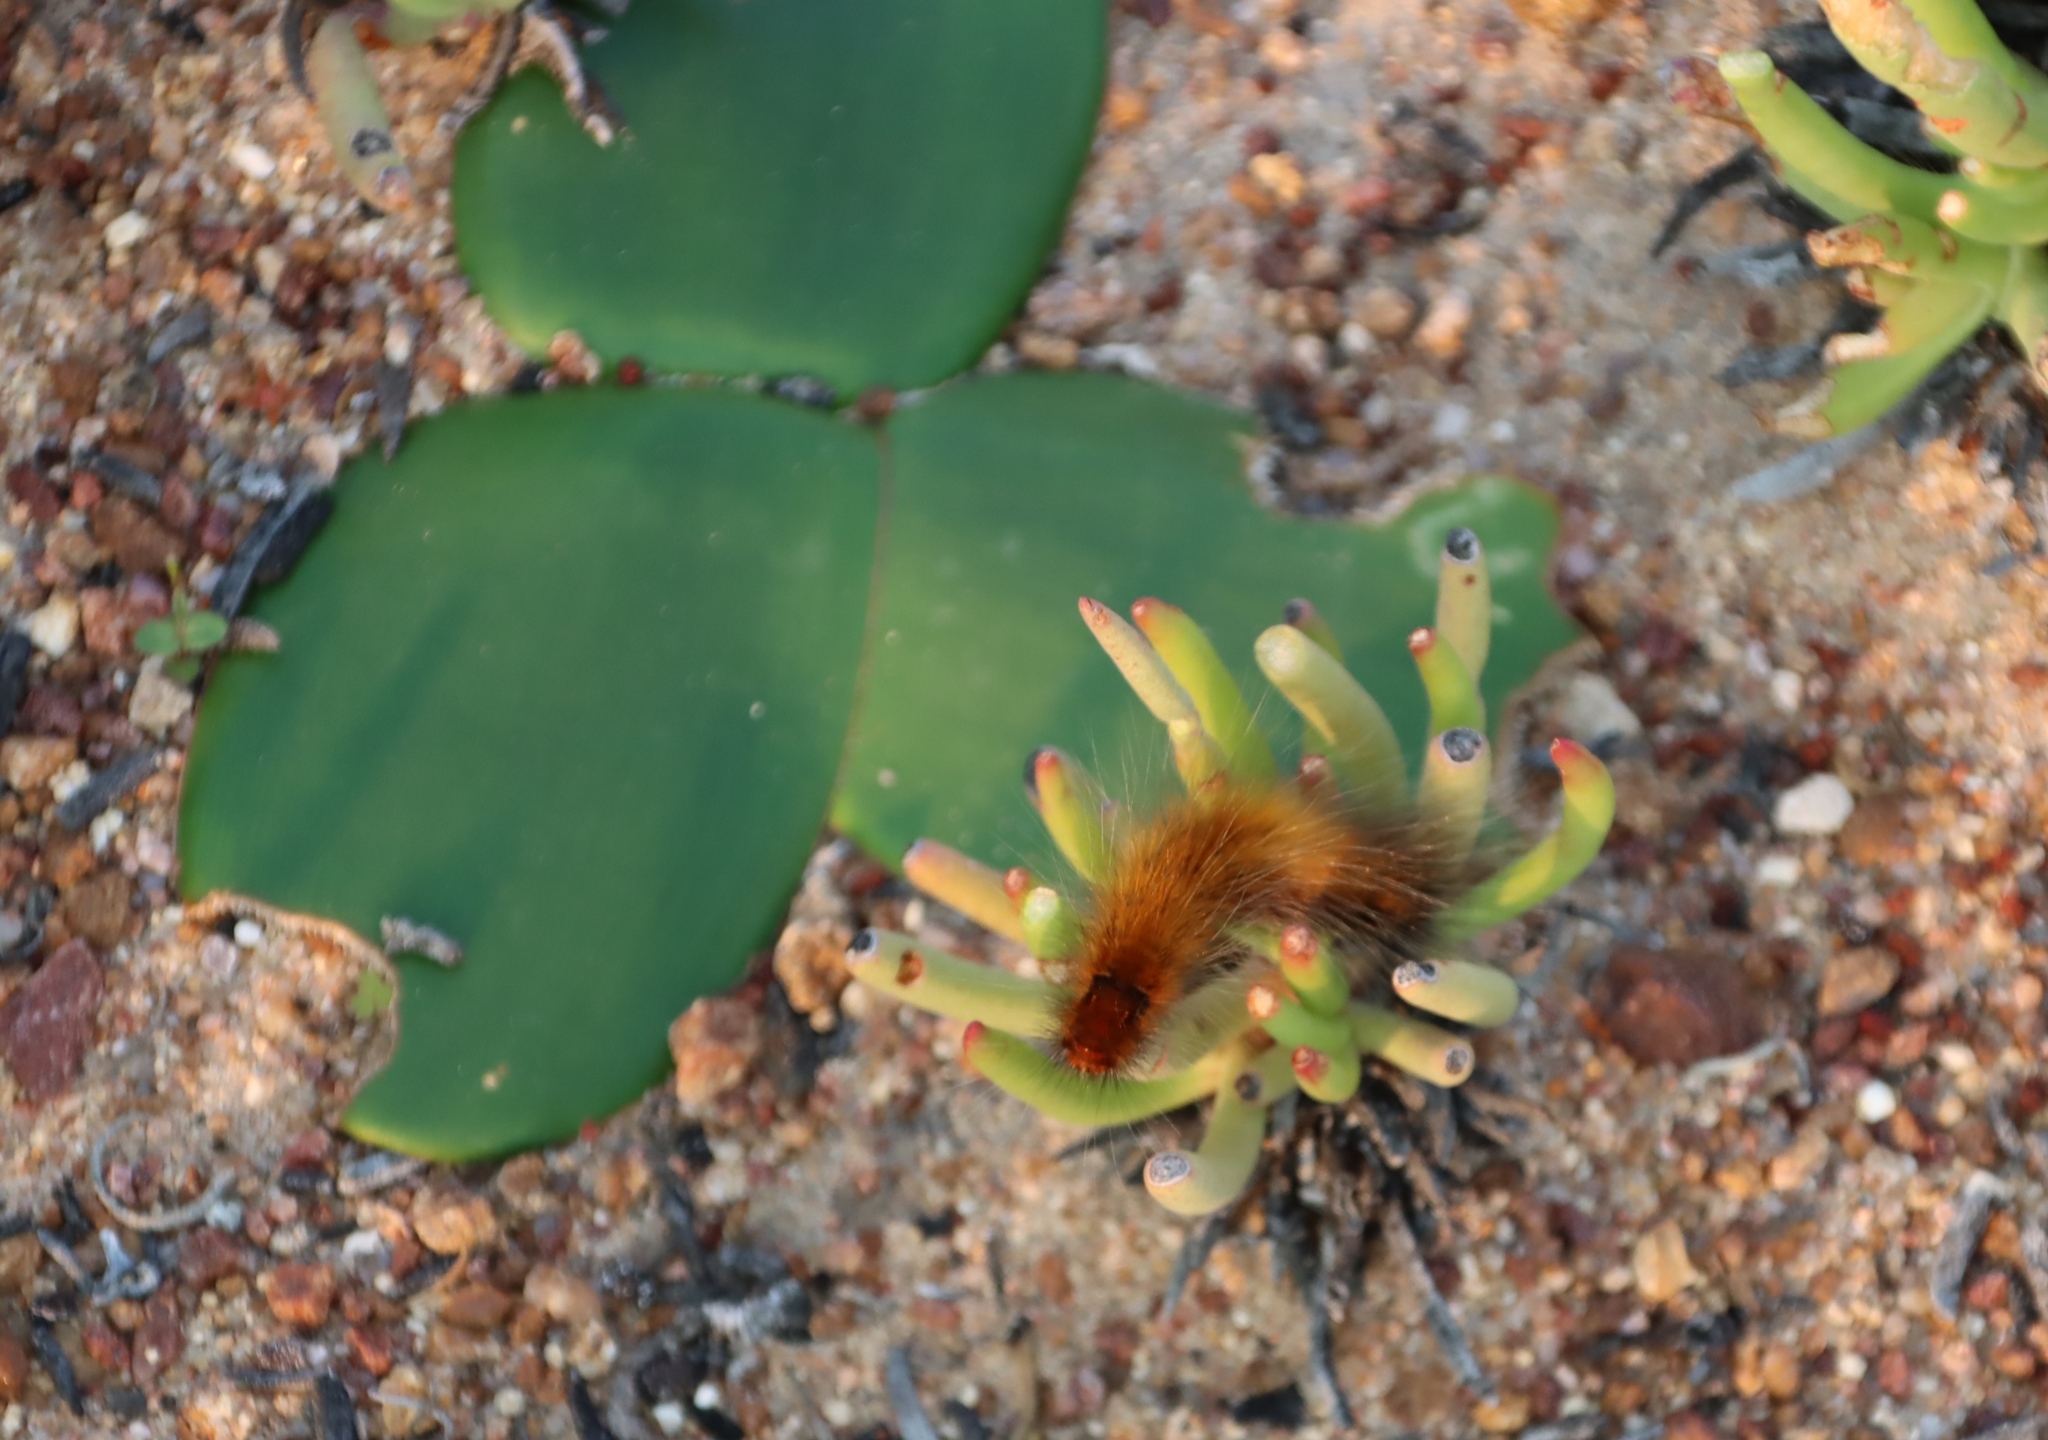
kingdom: Animalia
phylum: Arthropoda
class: Insecta
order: Lepidoptera
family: Lasiocampidae
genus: Mesocelis
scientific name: Mesocelis monticola
